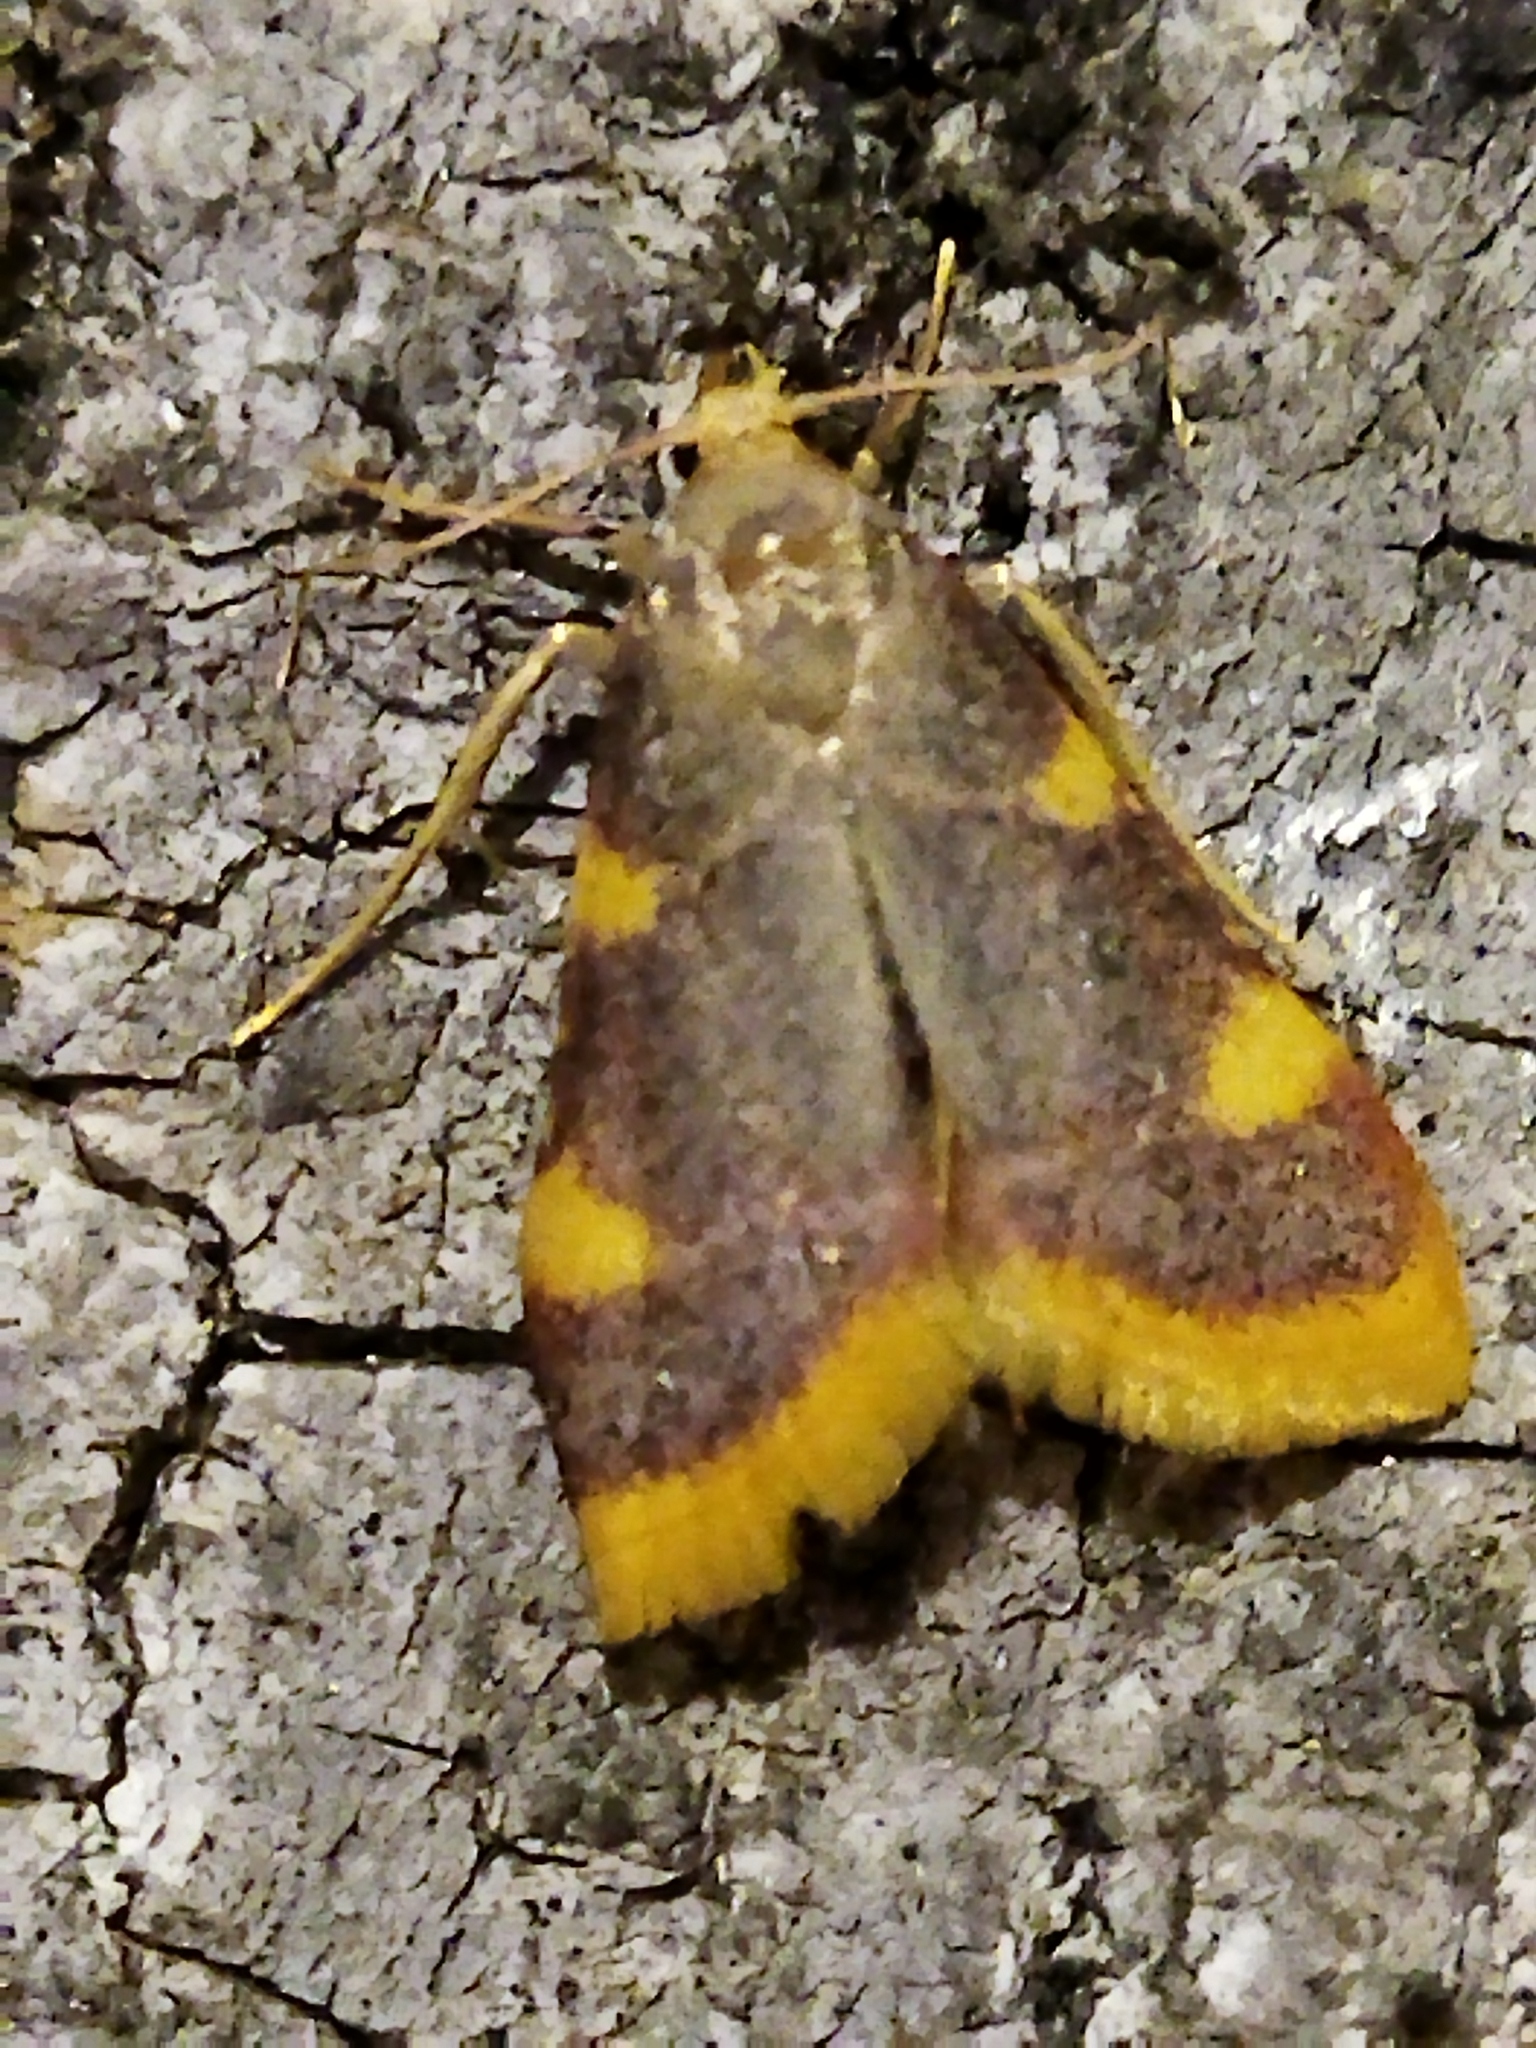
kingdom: Animalia
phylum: Arthropoda
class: Insecta
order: Lepidoptera
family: Pyralidae
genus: Hypsopygia
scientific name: Hypsopygia costalis
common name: Gold triangle
